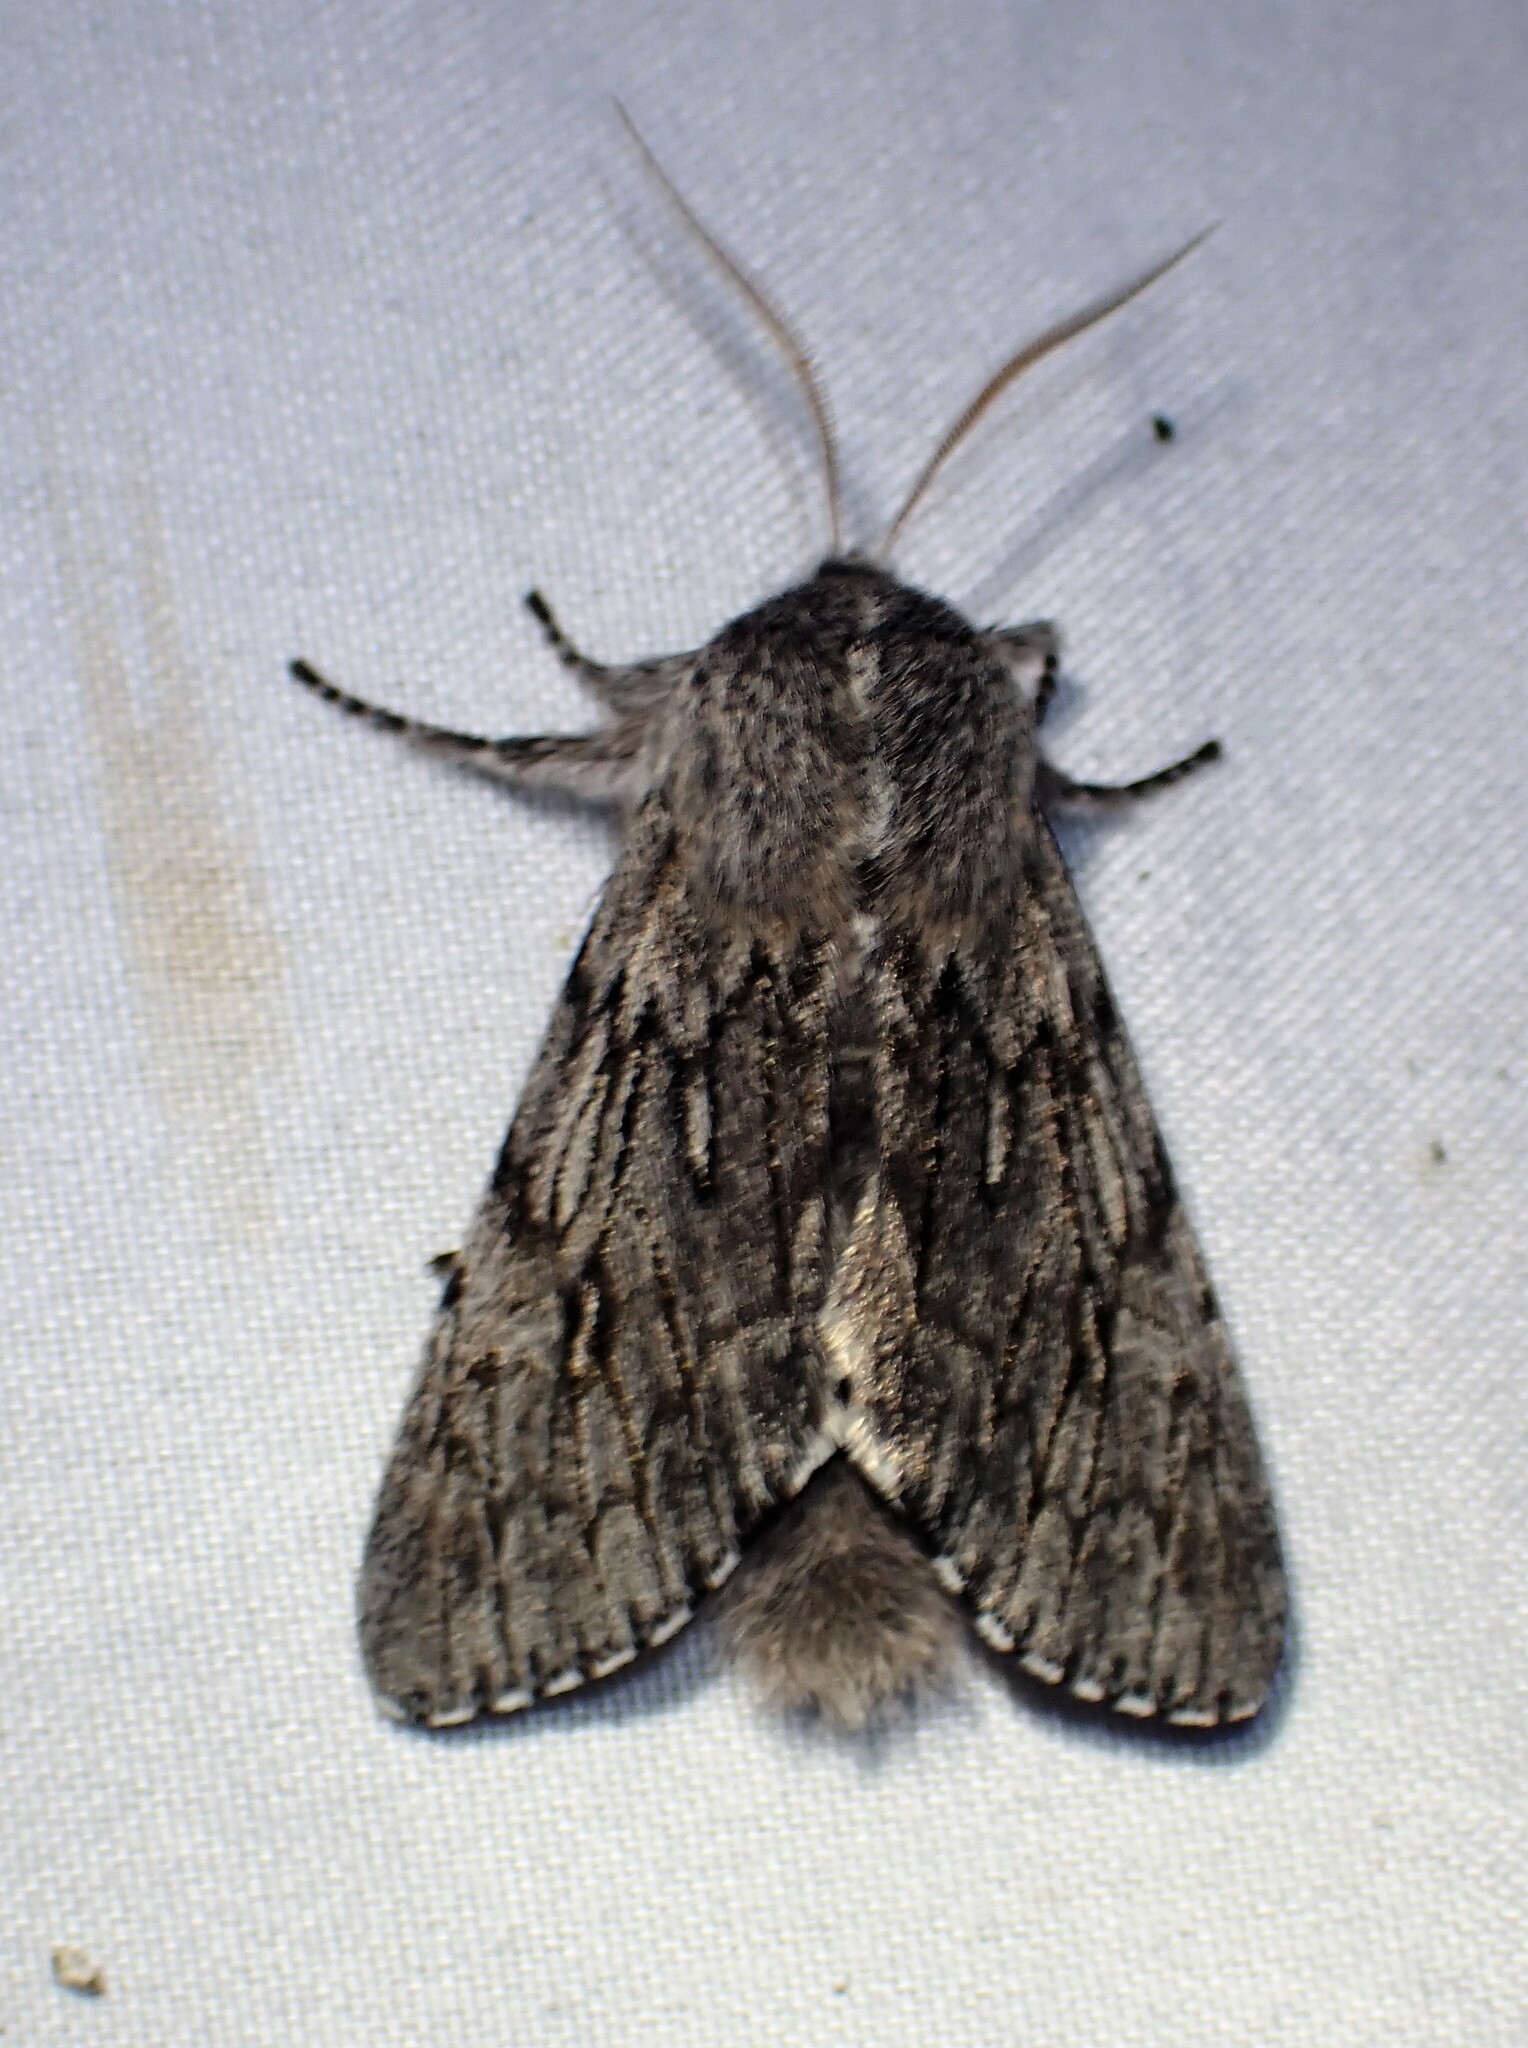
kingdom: Animalia
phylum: Arthropoda
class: Insecta
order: Lepidoptera
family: Noctuidae
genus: Brachionycha
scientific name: Brachionycha borealis
